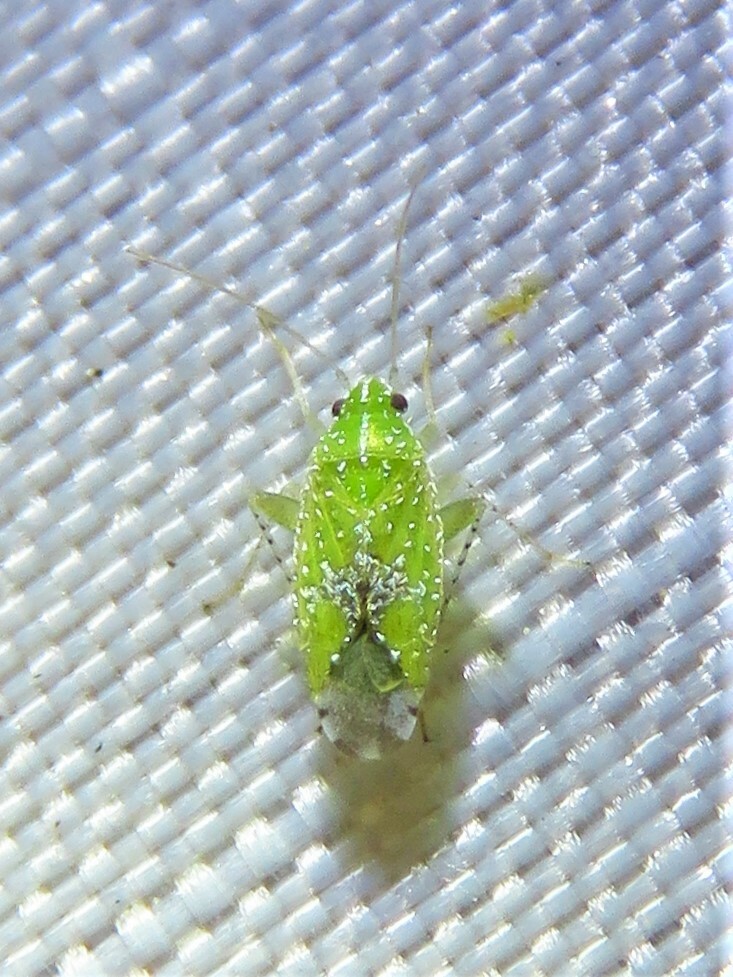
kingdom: Animalia
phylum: Arthropoda
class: Insecta
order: Hemiptera
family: Miridae
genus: Keltonia
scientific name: Keltonia tuckeri
